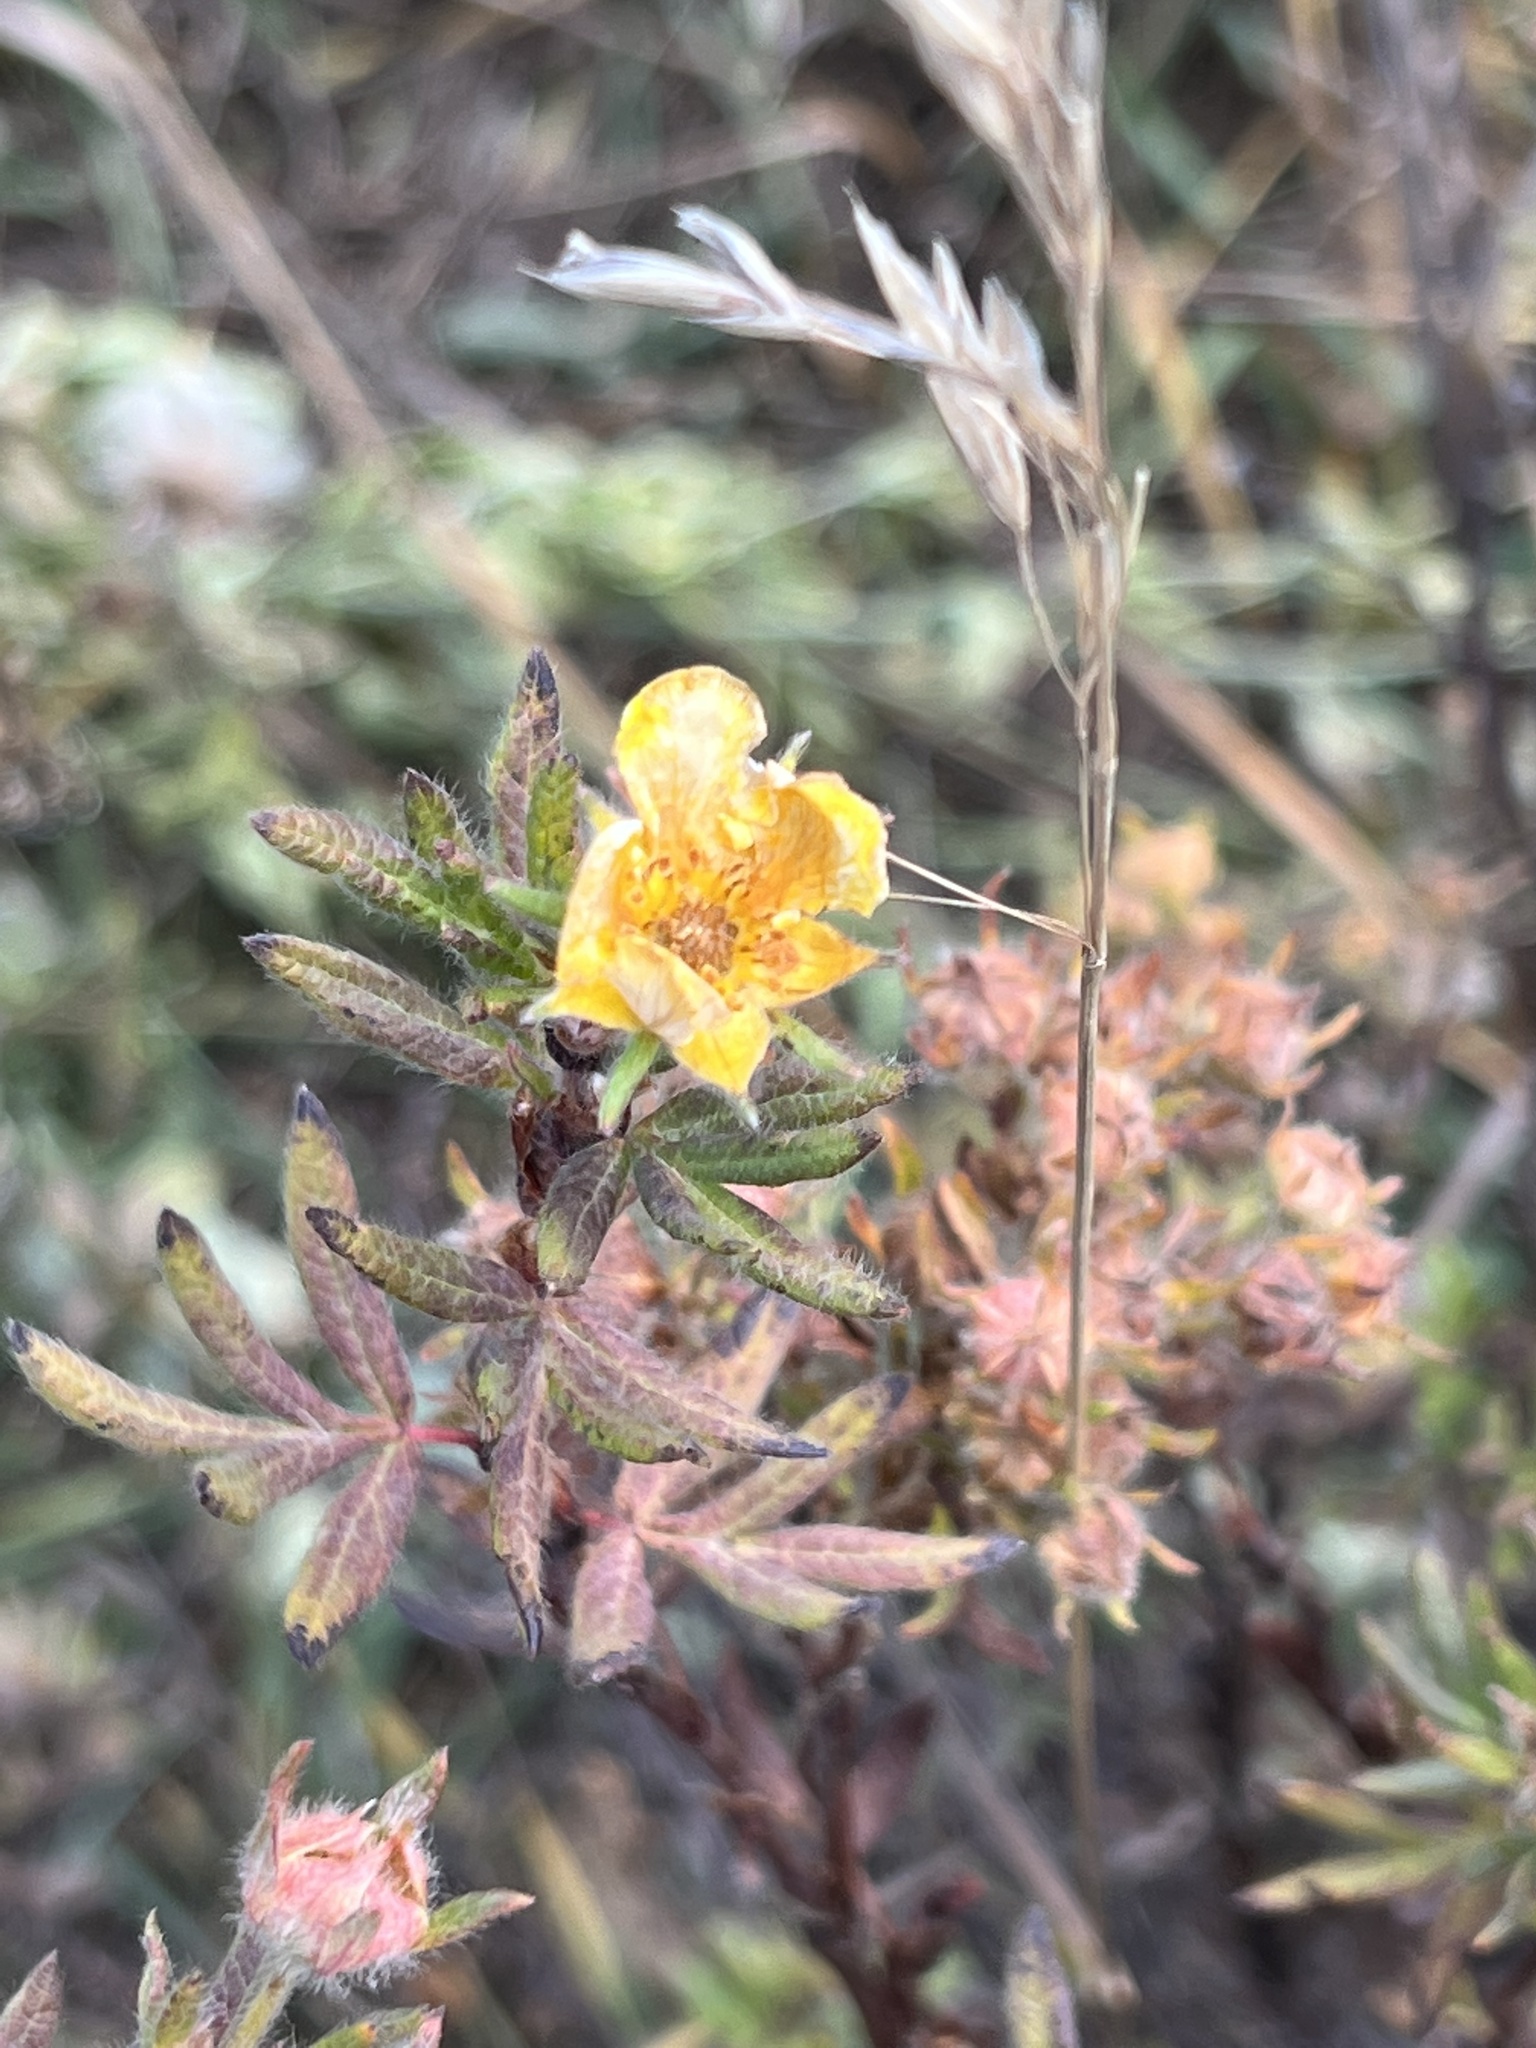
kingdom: Plantae
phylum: Tracheophyta
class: Magnoliopsida
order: Rosales
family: Rosaceae
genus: Dasiphora
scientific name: Dasiphora fruticosa
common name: Shrubby cinquefoil
